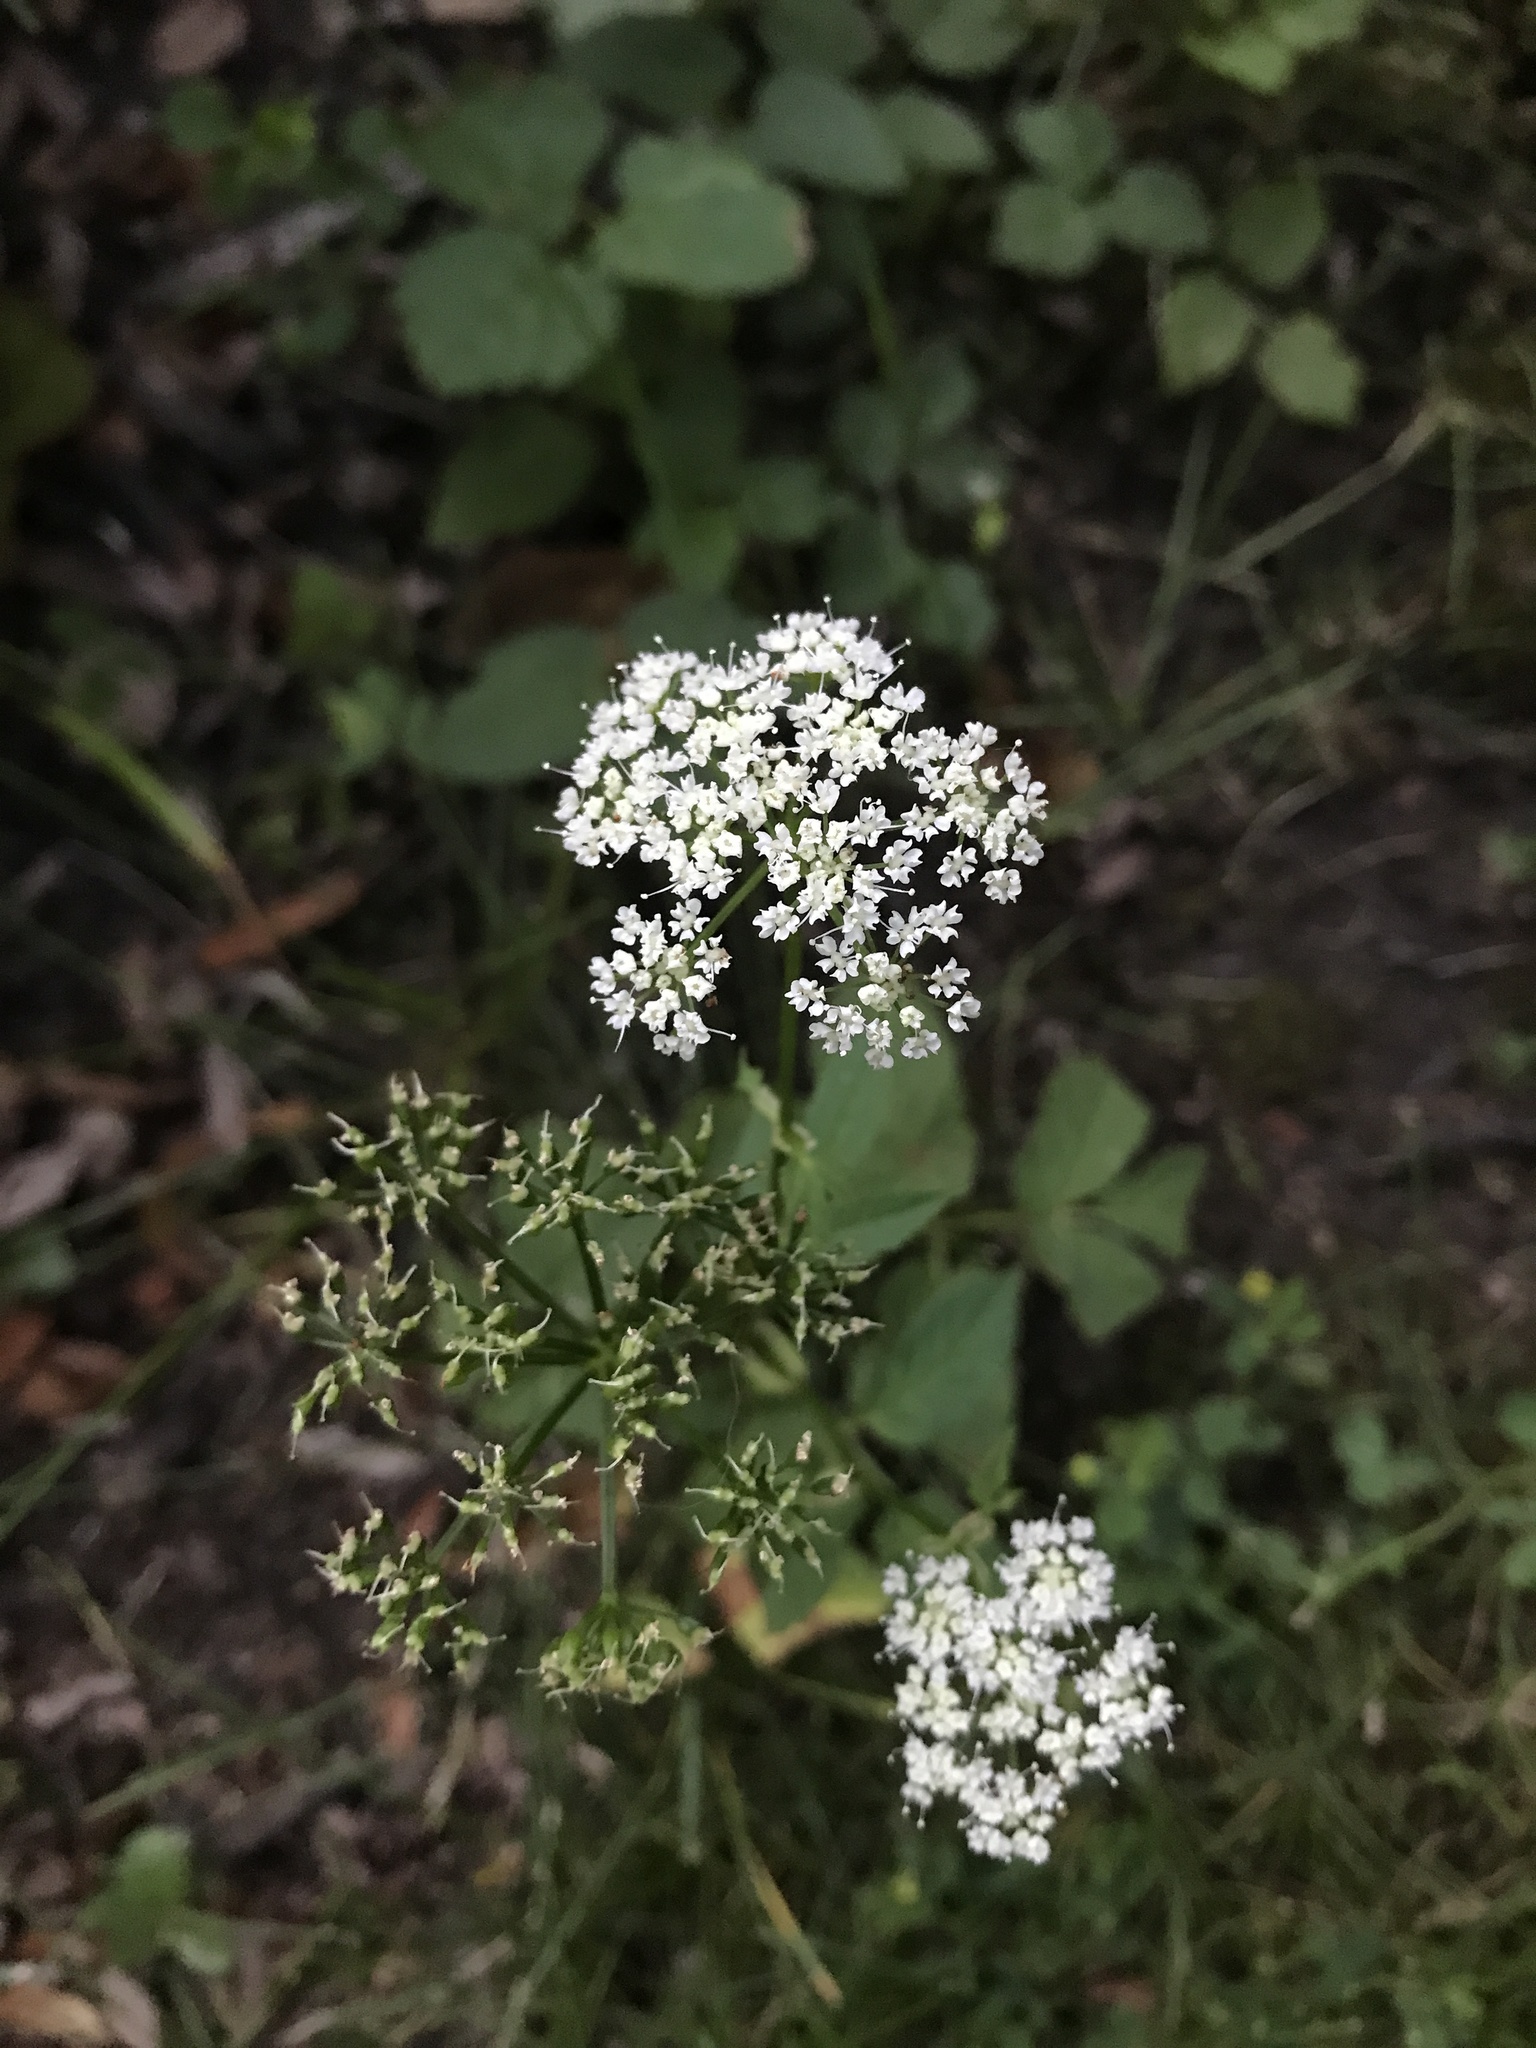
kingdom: Plantae
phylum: Tracheophyta
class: Magnoliopsida
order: Apiales
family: Apiaceae
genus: Aegopodium
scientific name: Aegopodium podagraria
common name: Ground-elder
